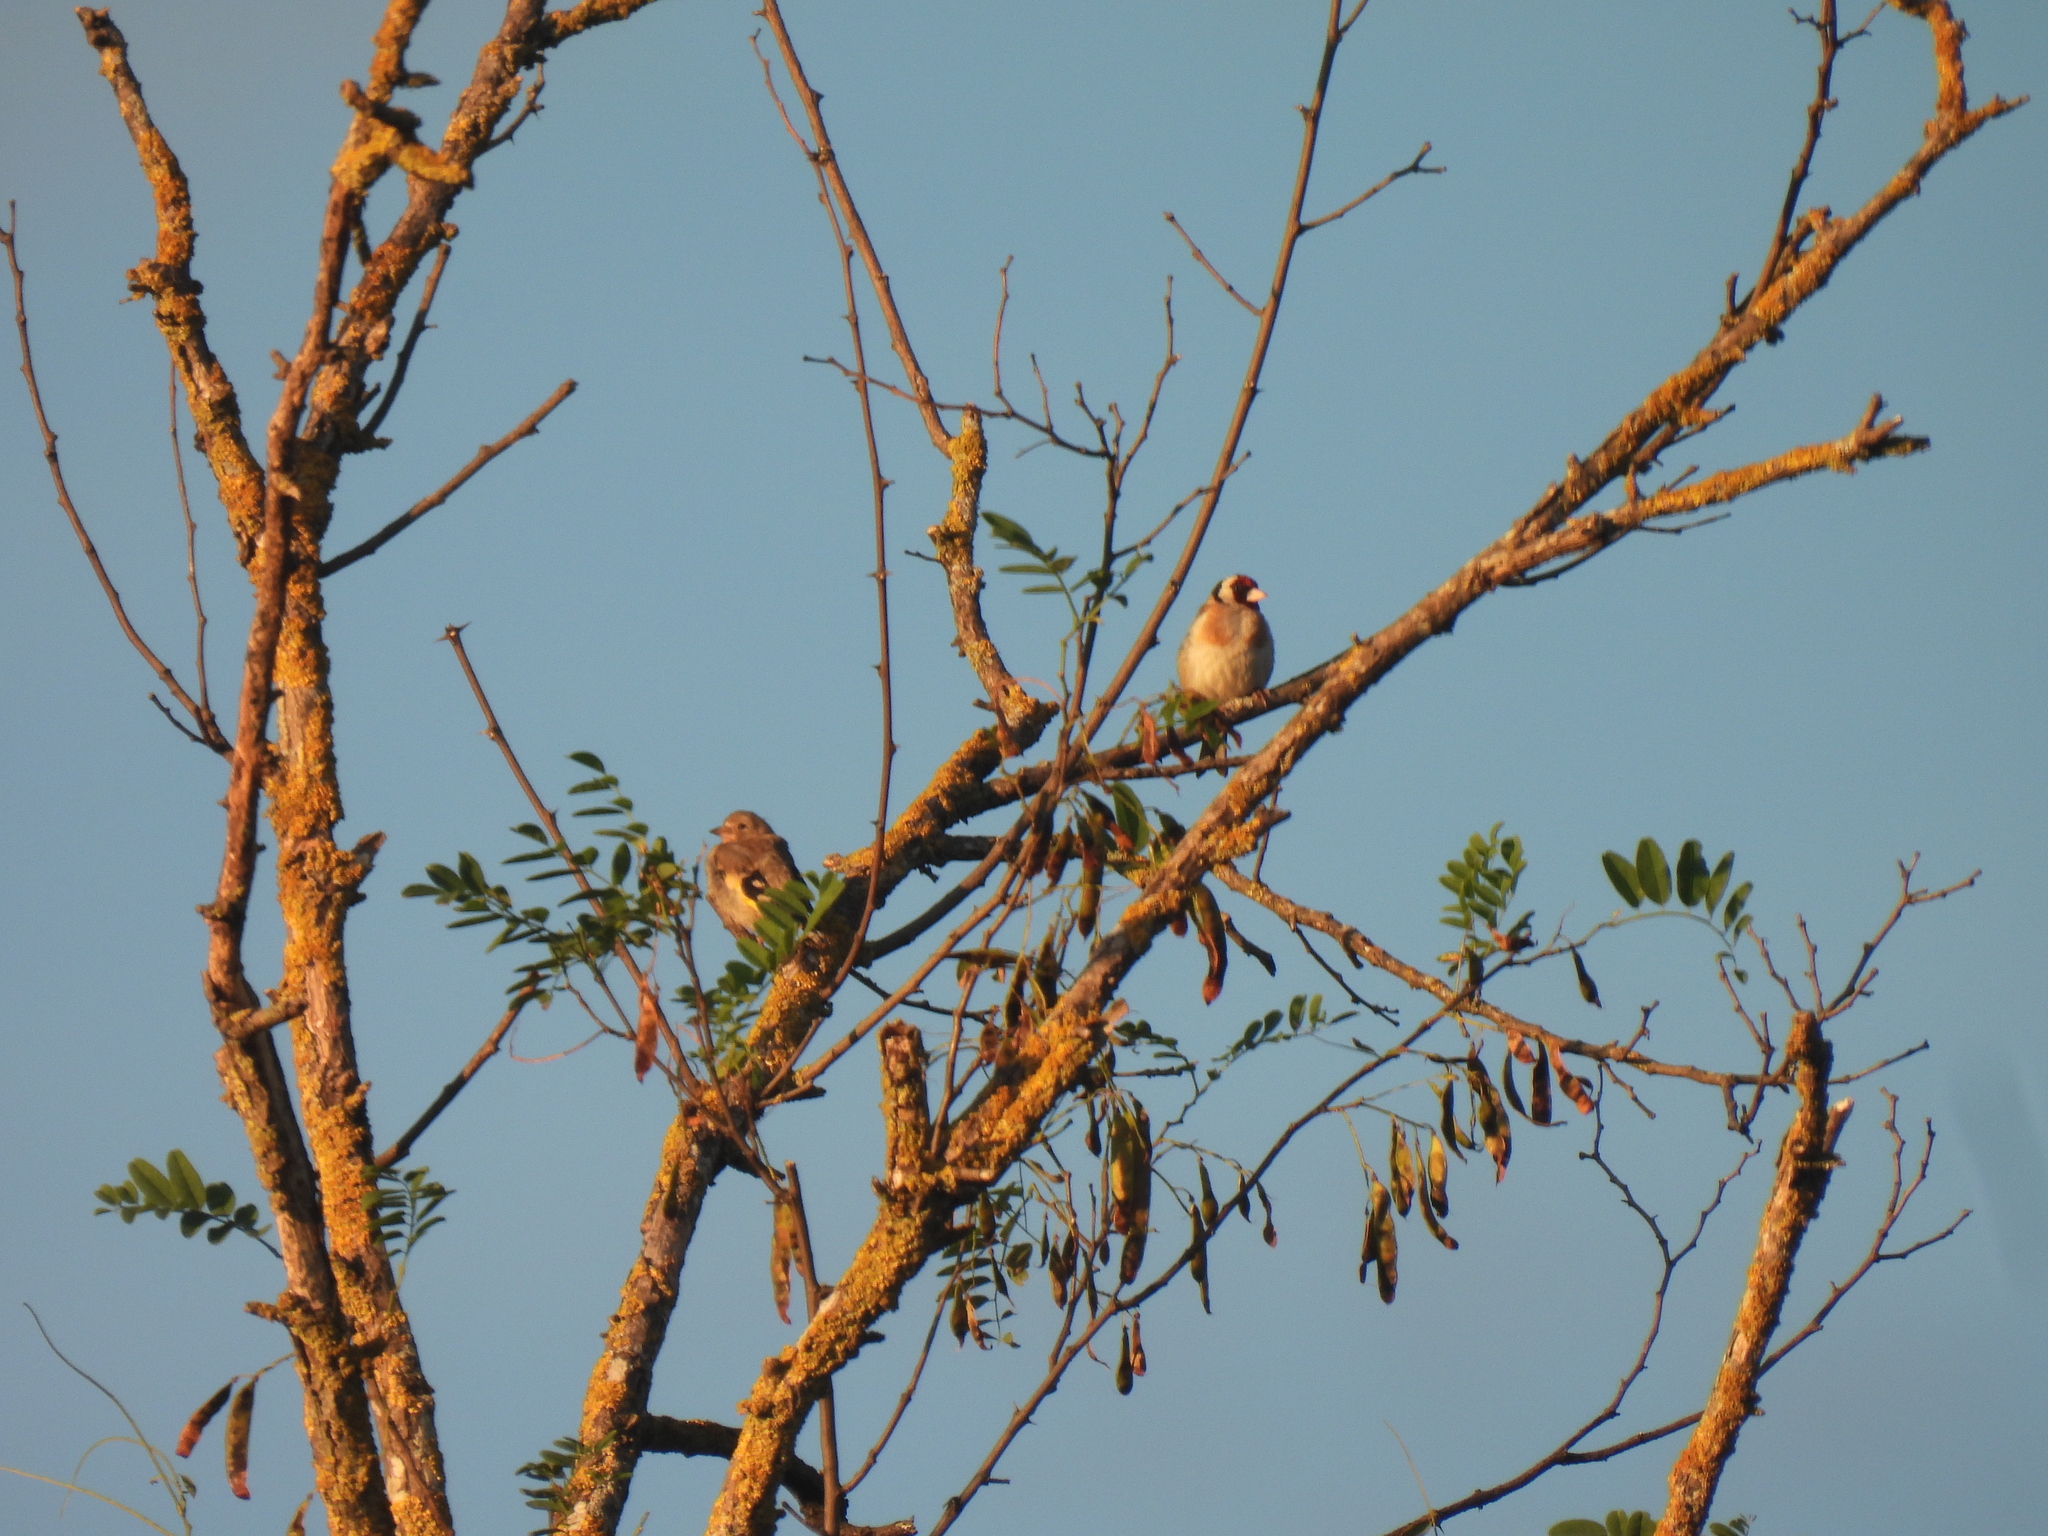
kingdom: Animalia
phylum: Chordata
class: Aves
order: Passeriformes
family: Fringillidae
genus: Carduelis
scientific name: Carduelis carduelis
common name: European goldfinch
